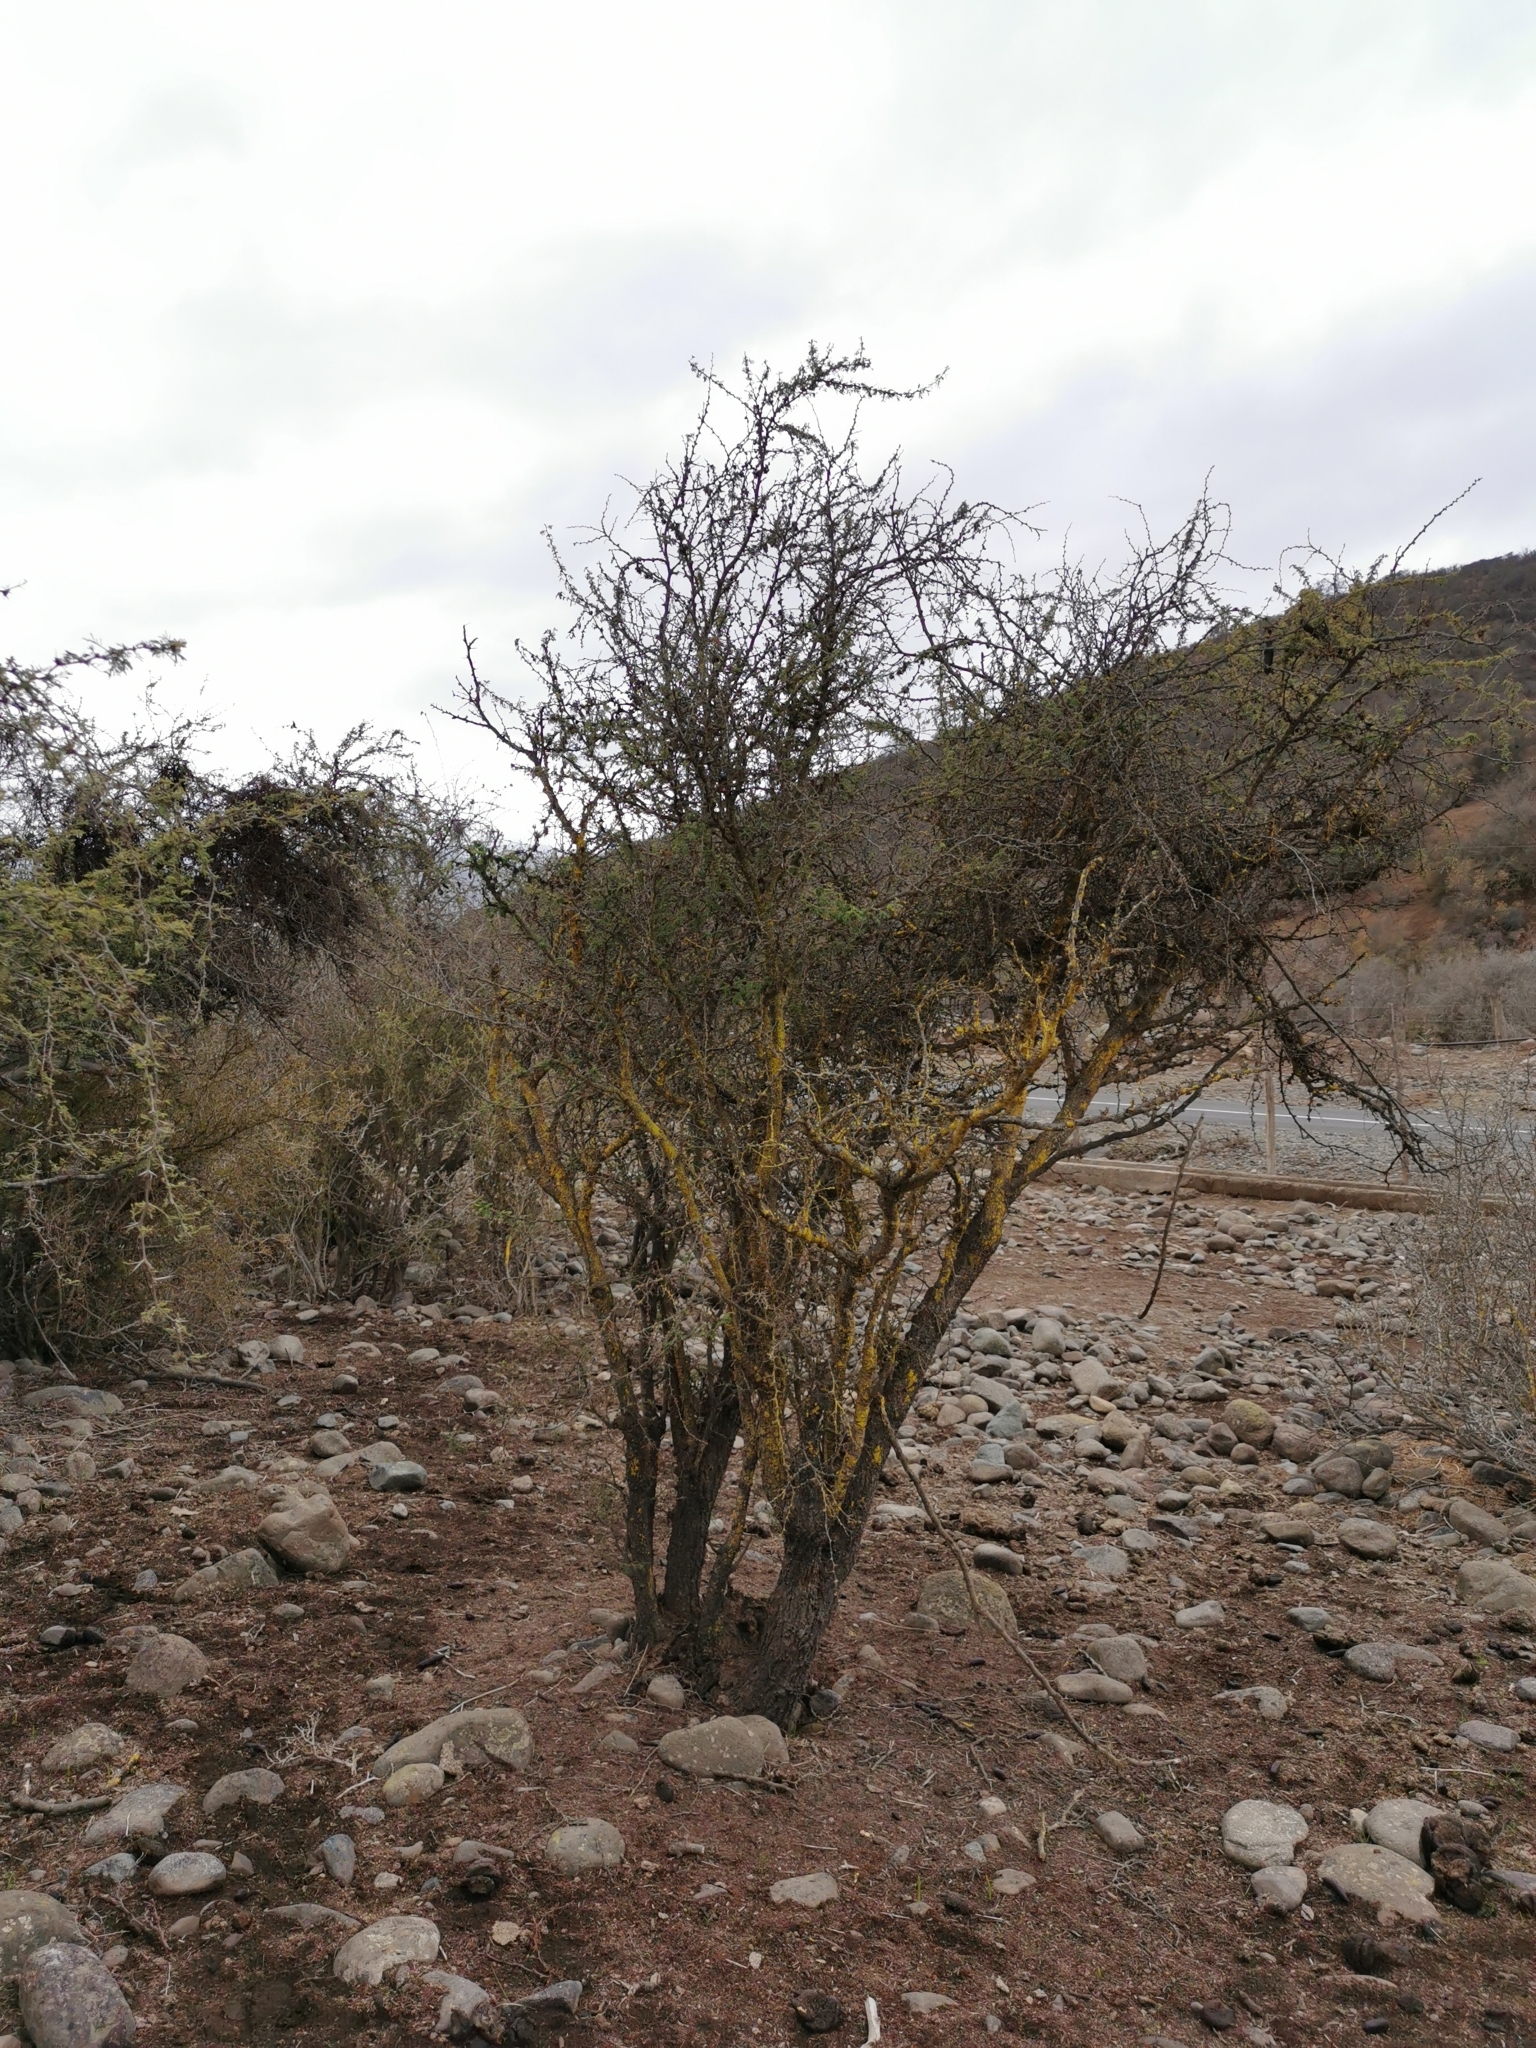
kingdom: Plantae
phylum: Tracheophyta
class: Magnoliopsida
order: Fabales
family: Fabaceae
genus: Vachellia
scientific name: Vachellia caven
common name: Roman cassie
